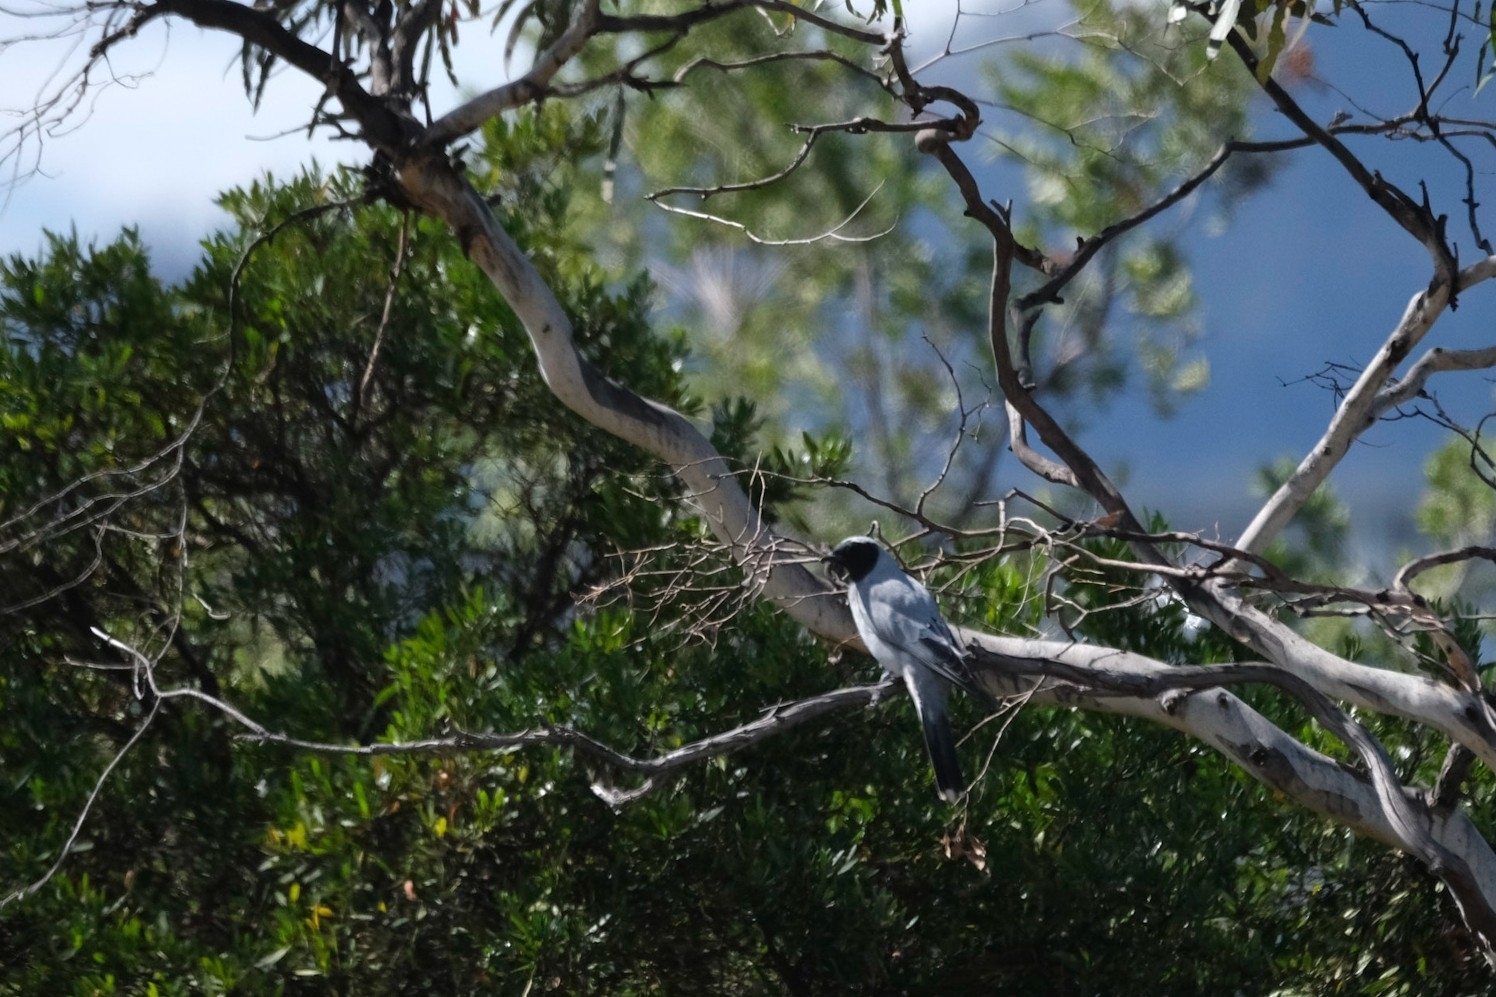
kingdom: Animalia
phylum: Chordata
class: Aves
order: Passeriformes
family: Campephagidae
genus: Coracina
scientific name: Coracina novaehollandiae
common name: Black-faced cuckooshrike
